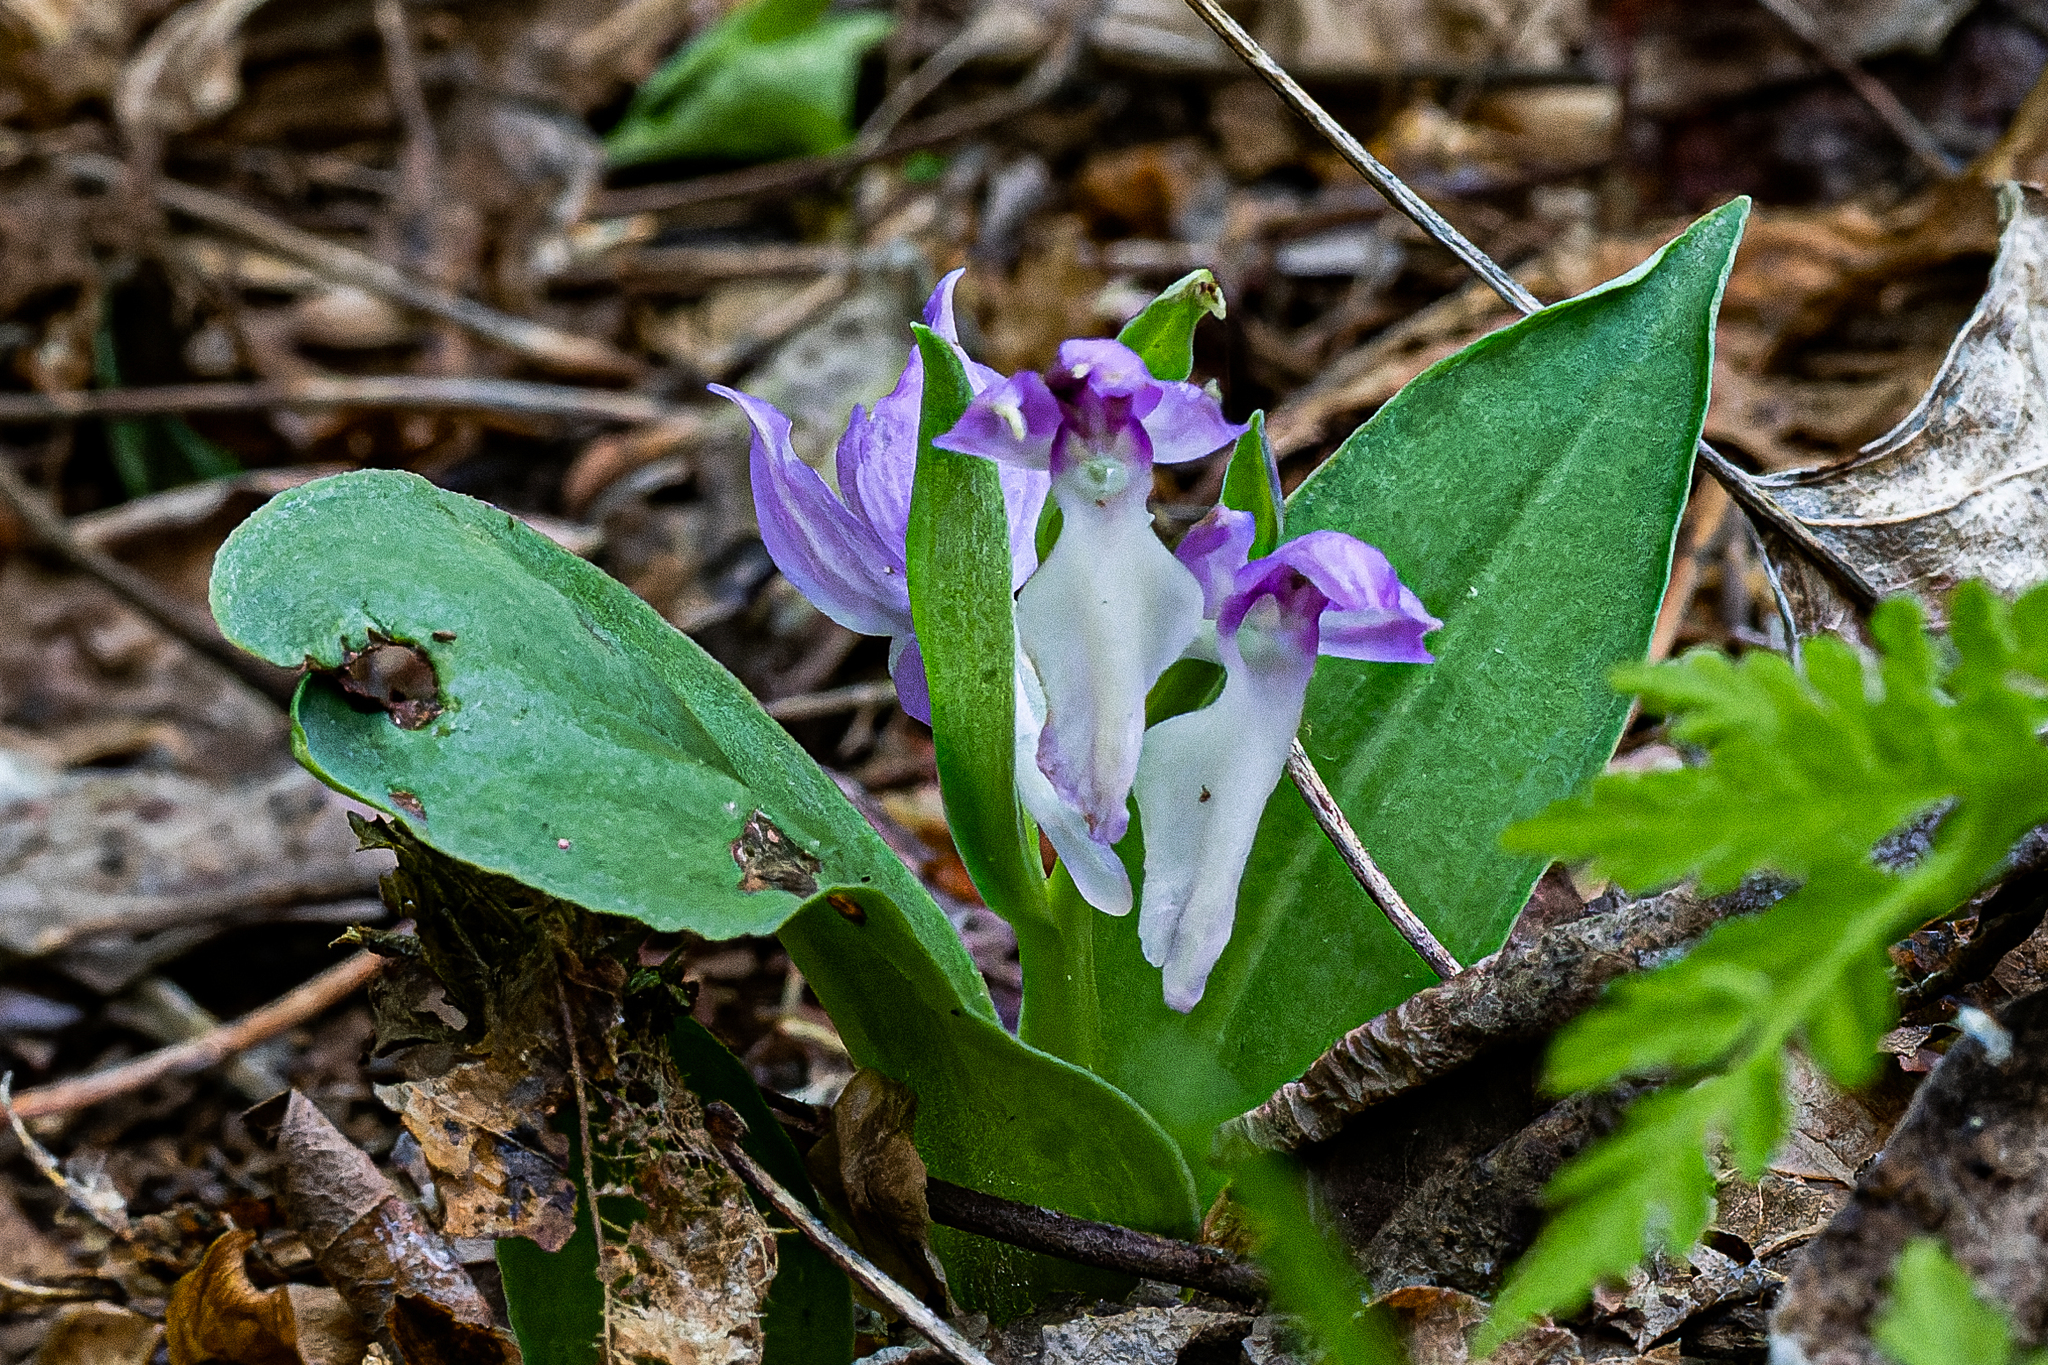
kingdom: Plantae
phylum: Tracheophyta
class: Liliopsida
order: Asparagales
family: Orchidaceae
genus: Galearis
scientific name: Galearis spectabilis
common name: Purple-hooded orchis
